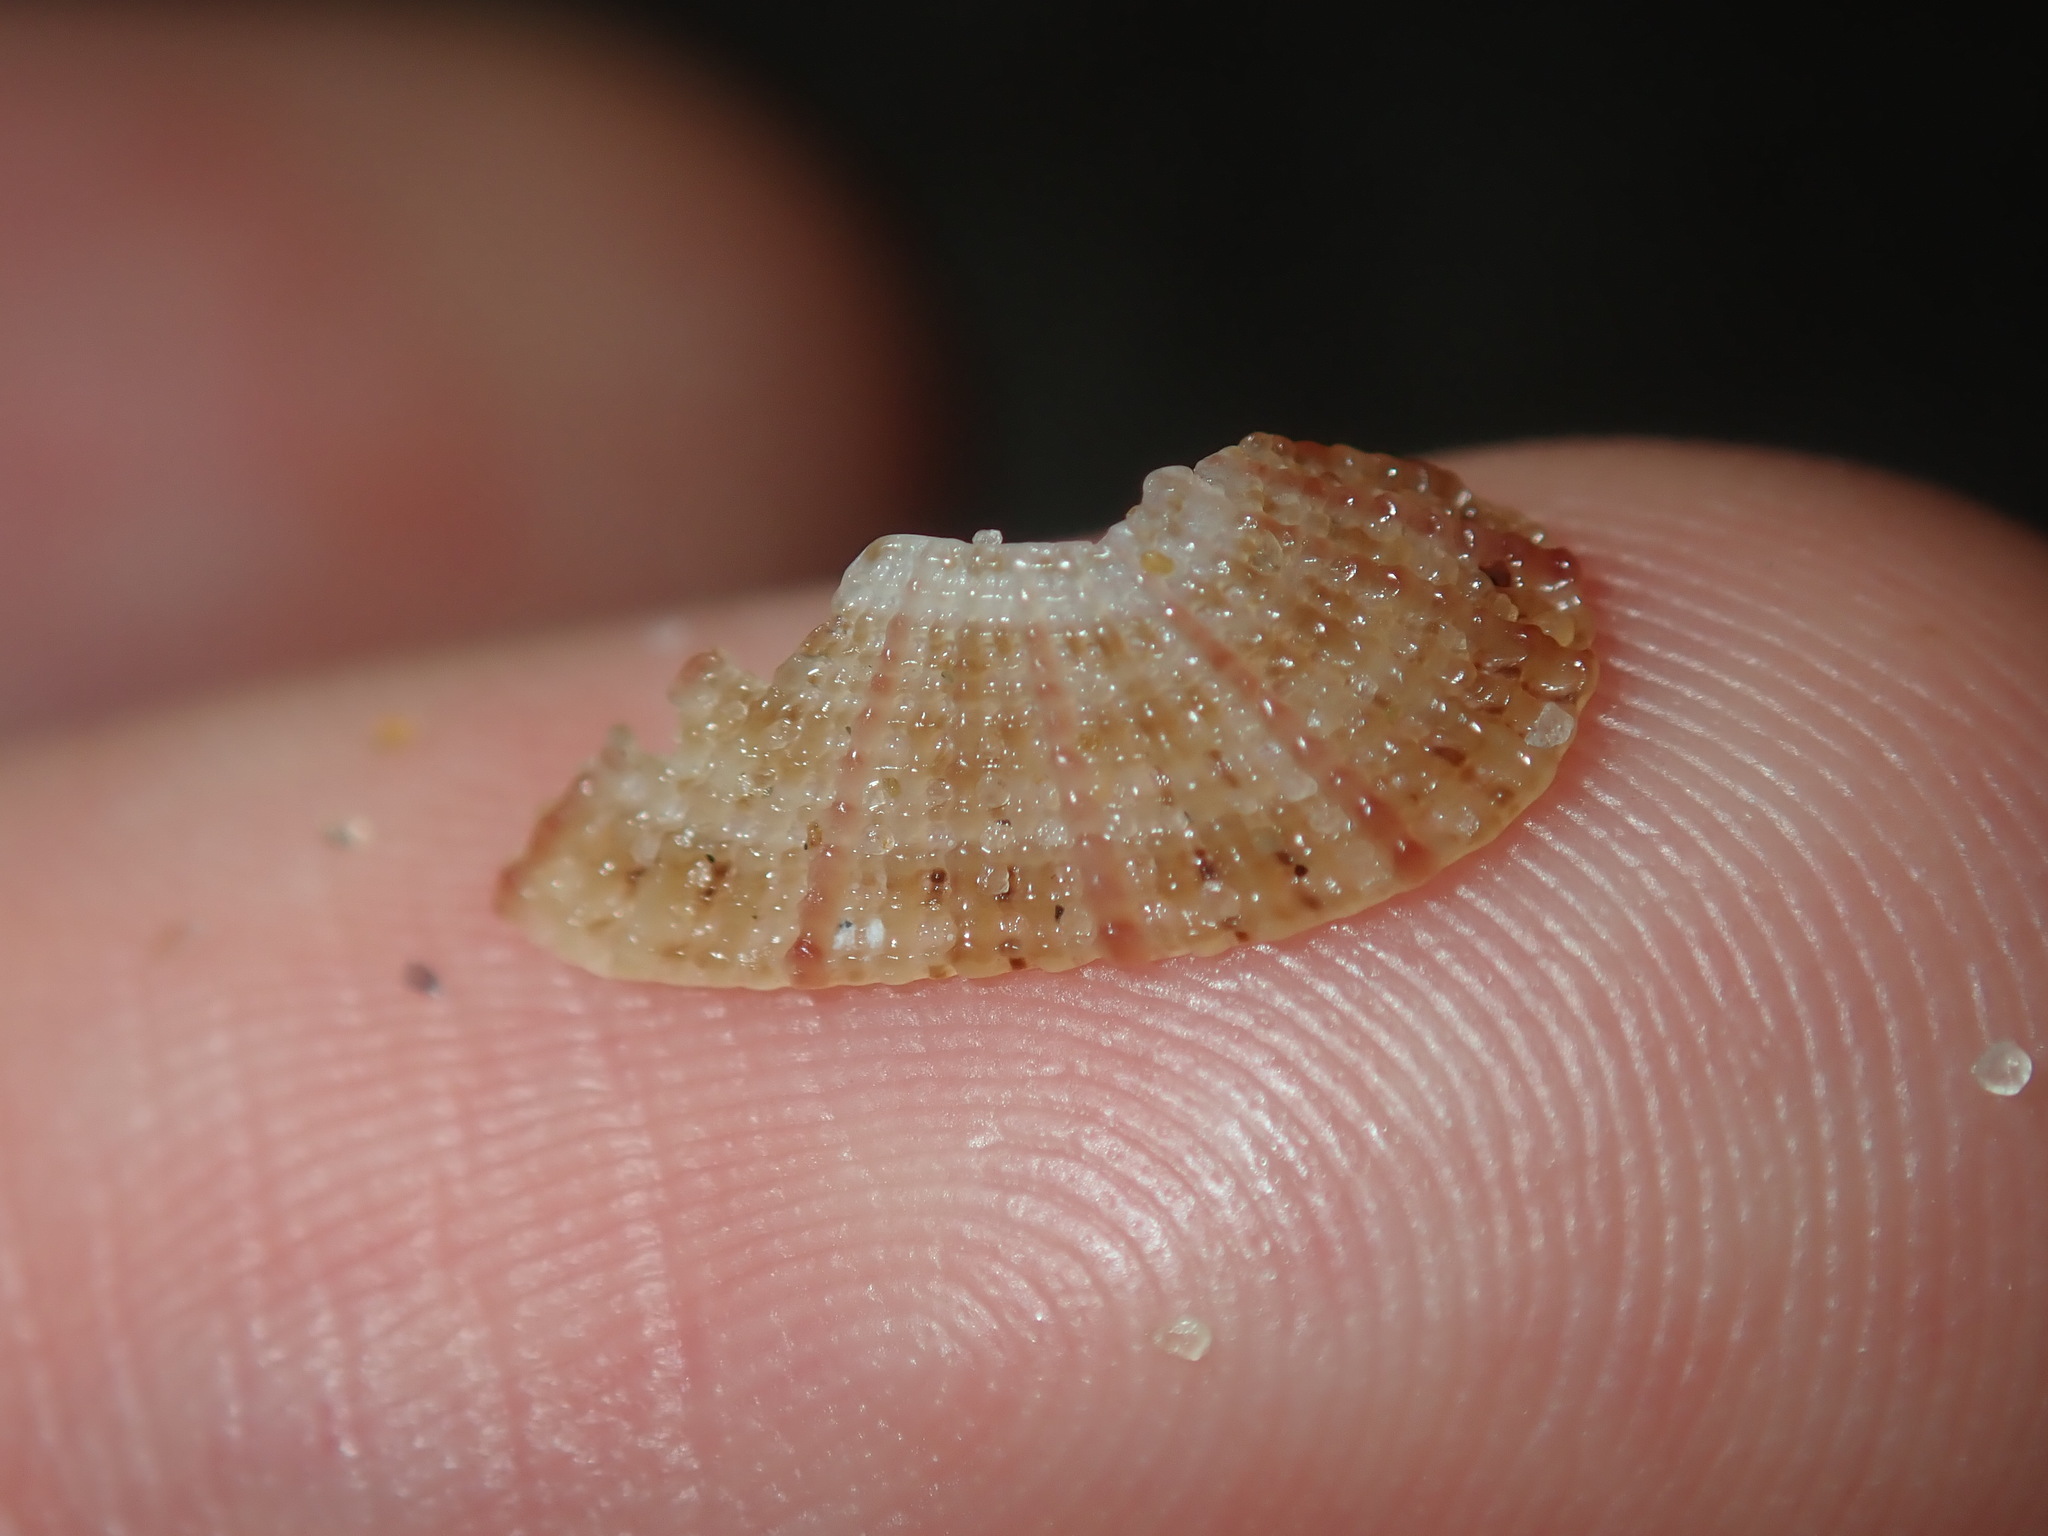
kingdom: Animalia
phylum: Mollusca
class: Gastropoda
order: Lepetellida
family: Fissurellidae
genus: Diodora
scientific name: Diodora lineata
